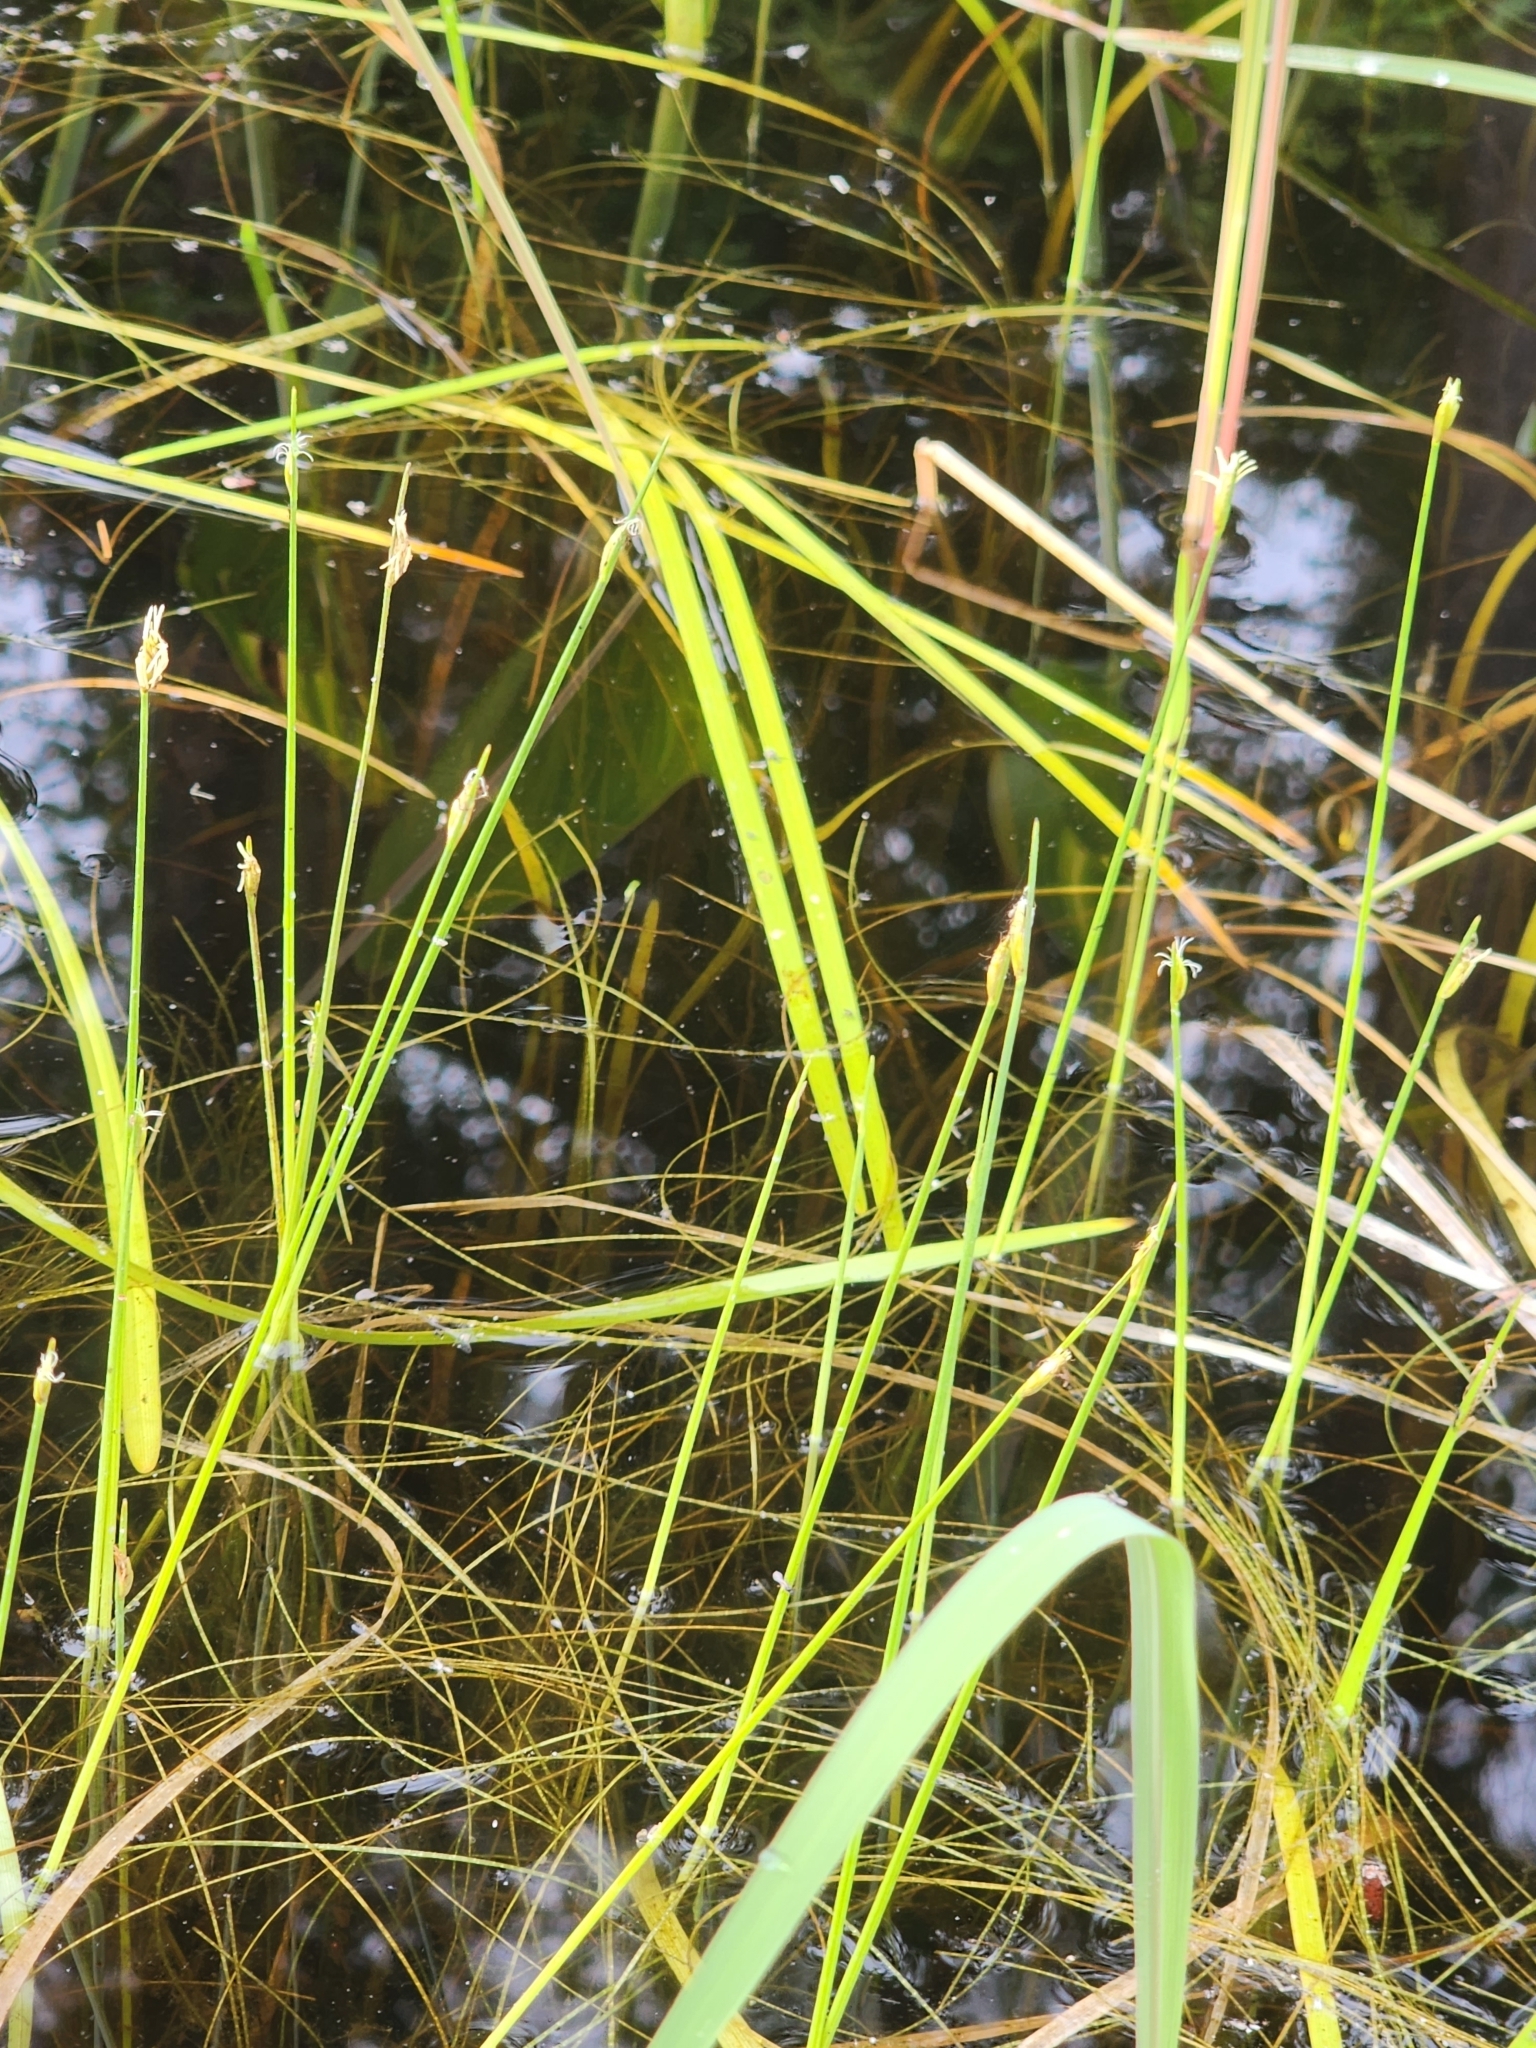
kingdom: Plantae
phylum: Tracheophyta
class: Liliopsida
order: Poales
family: Cyperaceae
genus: Schoenoplectus
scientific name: Schoenoplectus subterminalis
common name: Swaying bulrush
